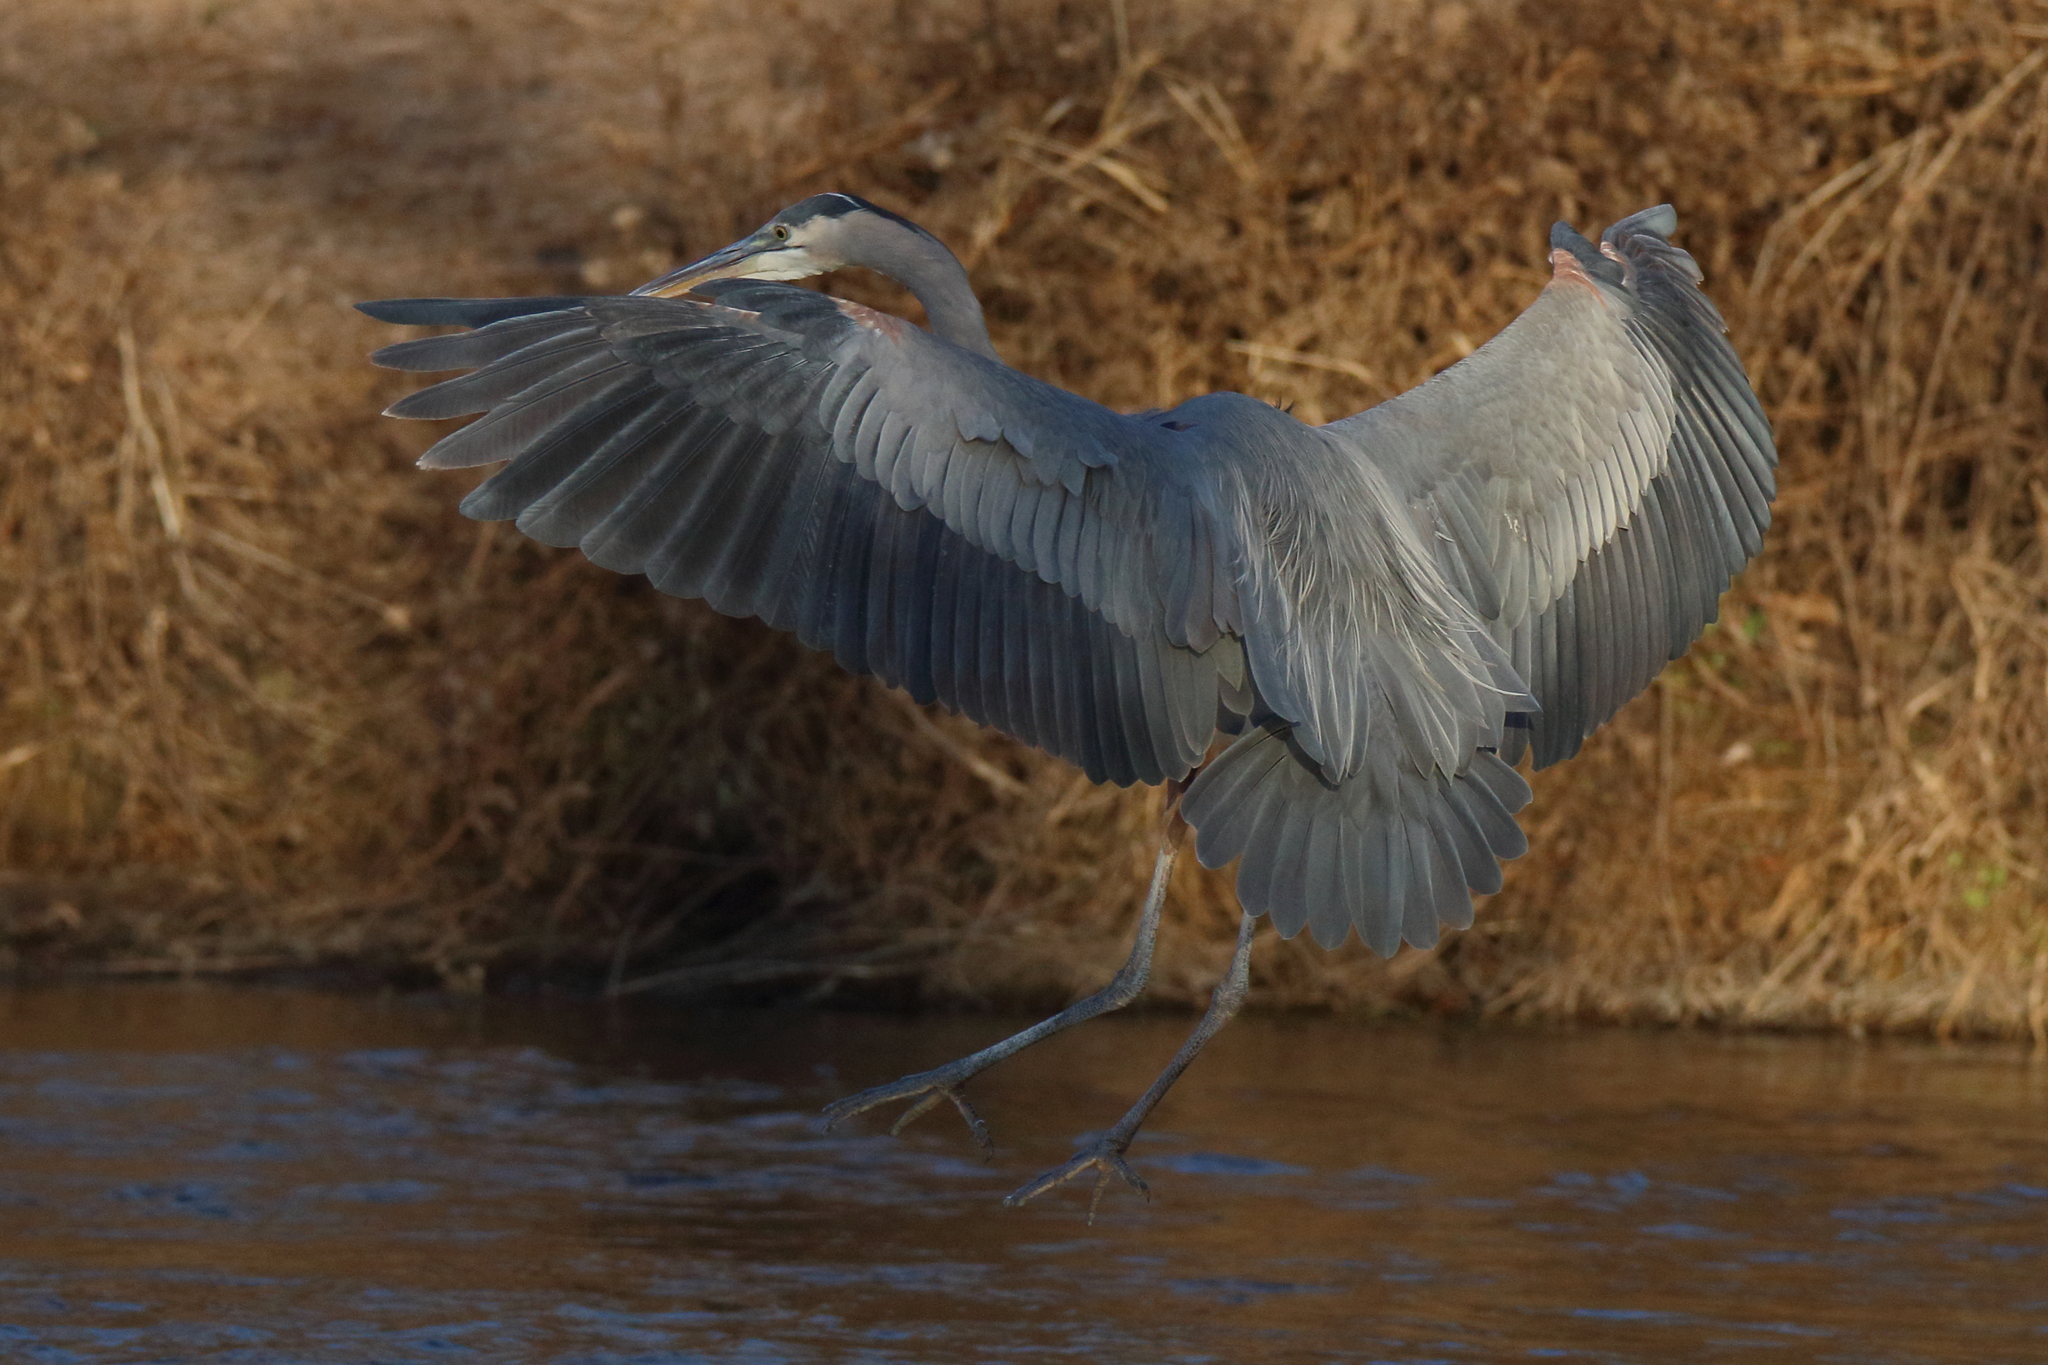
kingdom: Animalia
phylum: Chordata
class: Aves
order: Pelecaniformes
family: Ardeidae
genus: Ardea
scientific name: Ardea herodias
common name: Great blue heron
